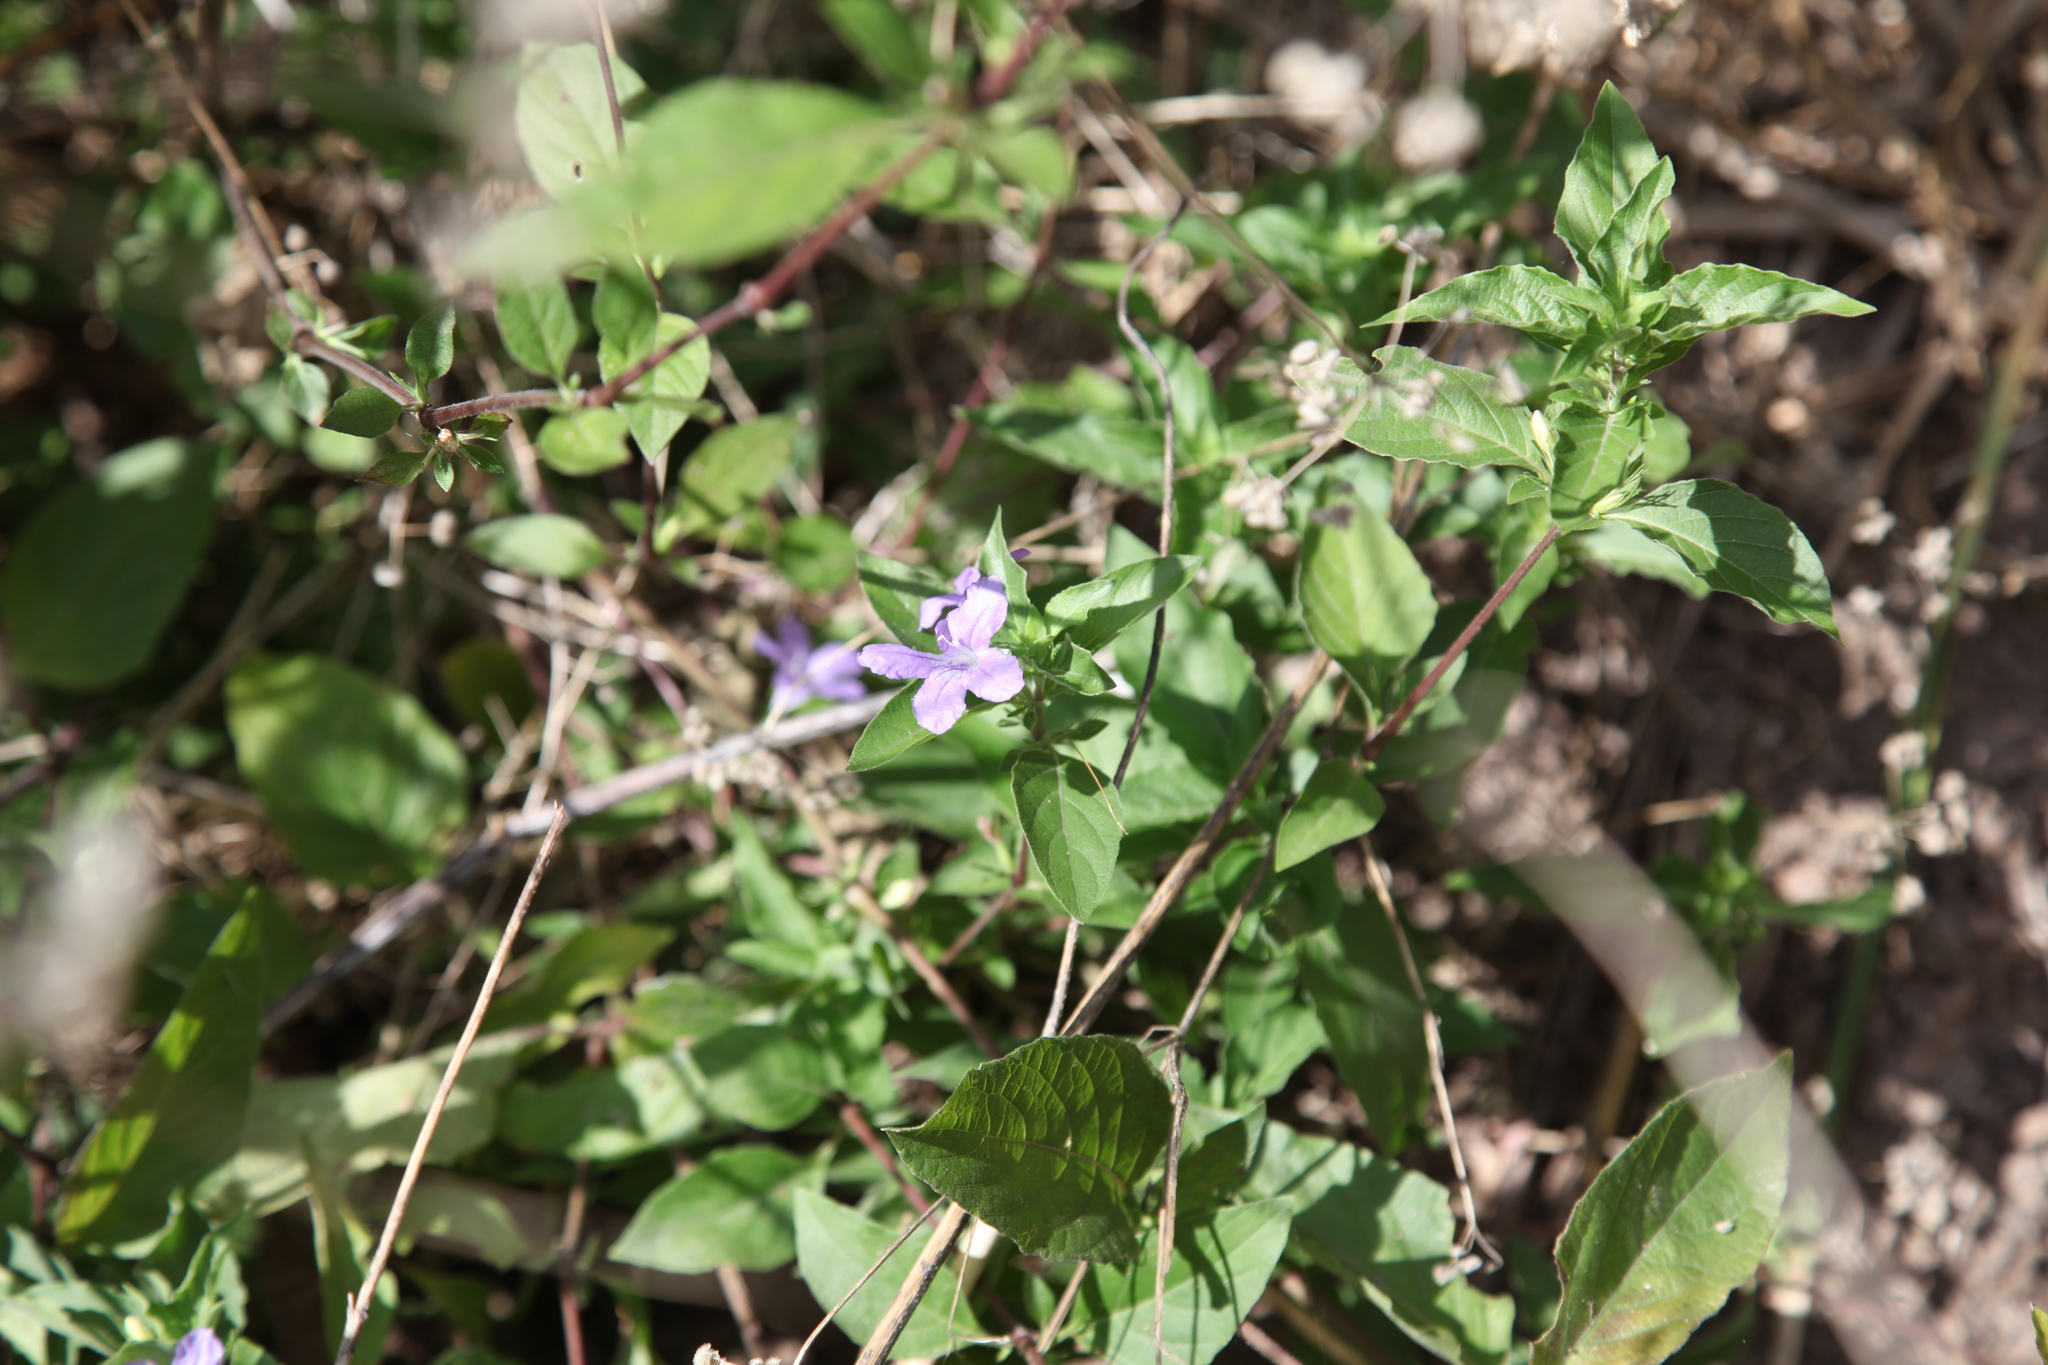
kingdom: Plantae
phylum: Tracheophyta
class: Magnoliopsida
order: Lamiales
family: Acanthaceae
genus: Ruellia
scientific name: Ruellia ciliatiflora
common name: Hairyflower wild petunia
